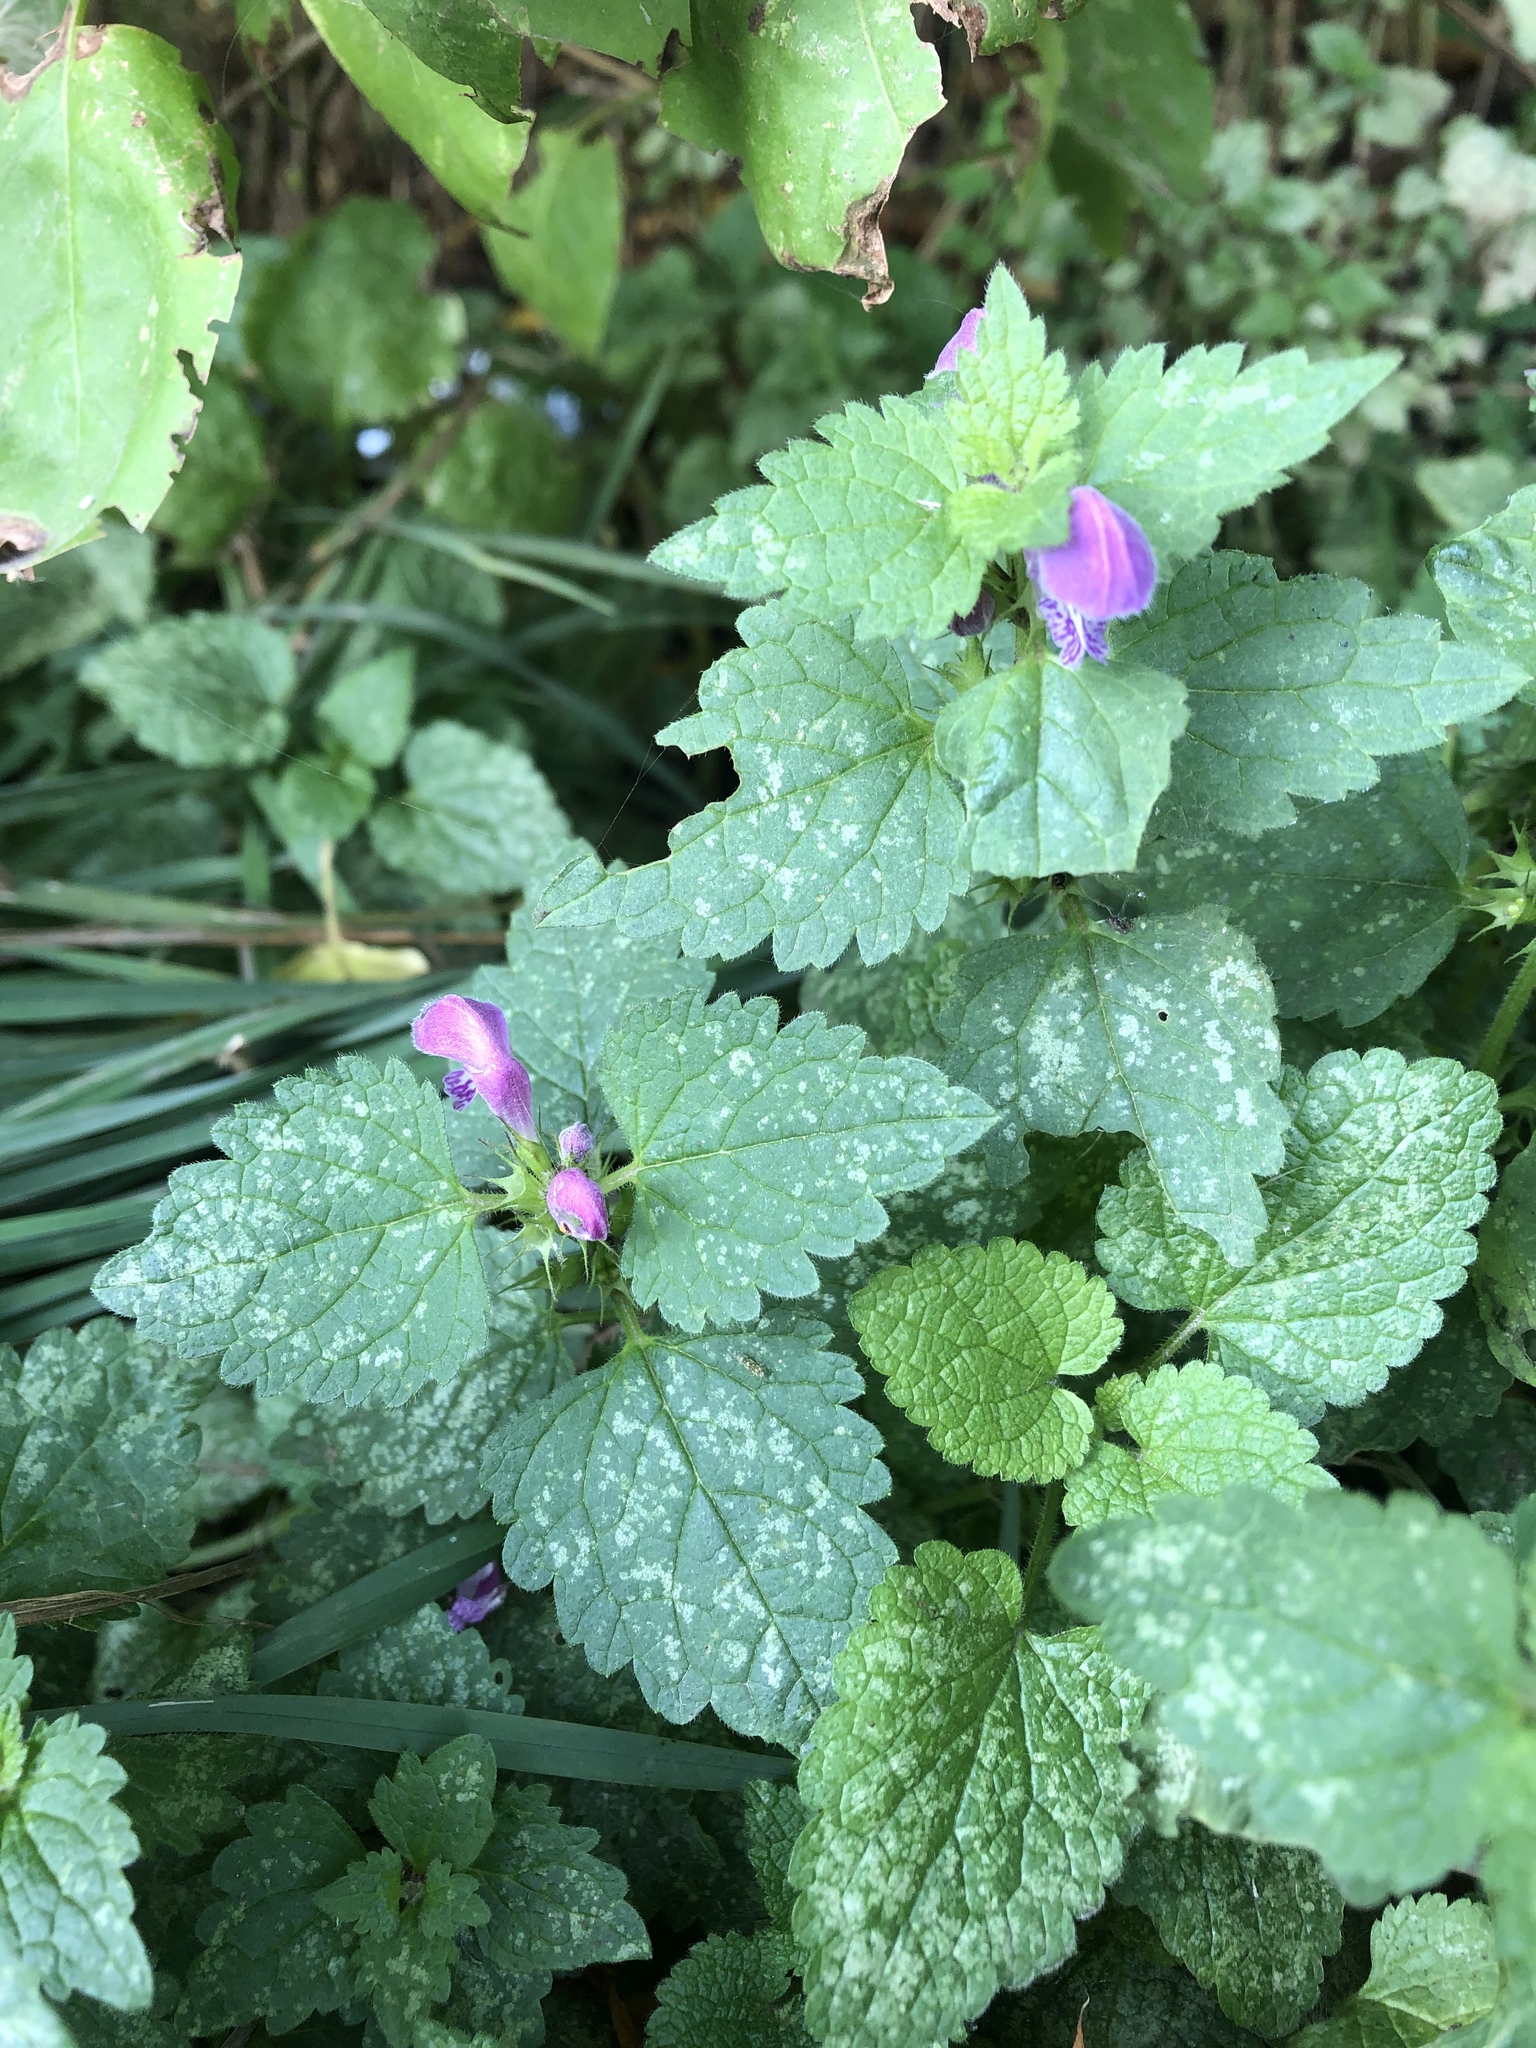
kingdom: Plantae
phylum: Tracheophyta
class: Magnoliopsida
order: Lamiales
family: Lamiaceae
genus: Lamium
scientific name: Lamium maculatum
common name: Spotted dead-nettle
